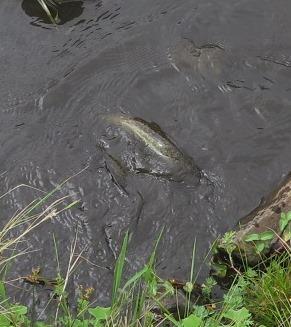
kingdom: Animalia
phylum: Chordata
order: Anguilliformes
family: Anguillidae
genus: Anguilla
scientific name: Anguilla marmorata
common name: Giant mottled eel
